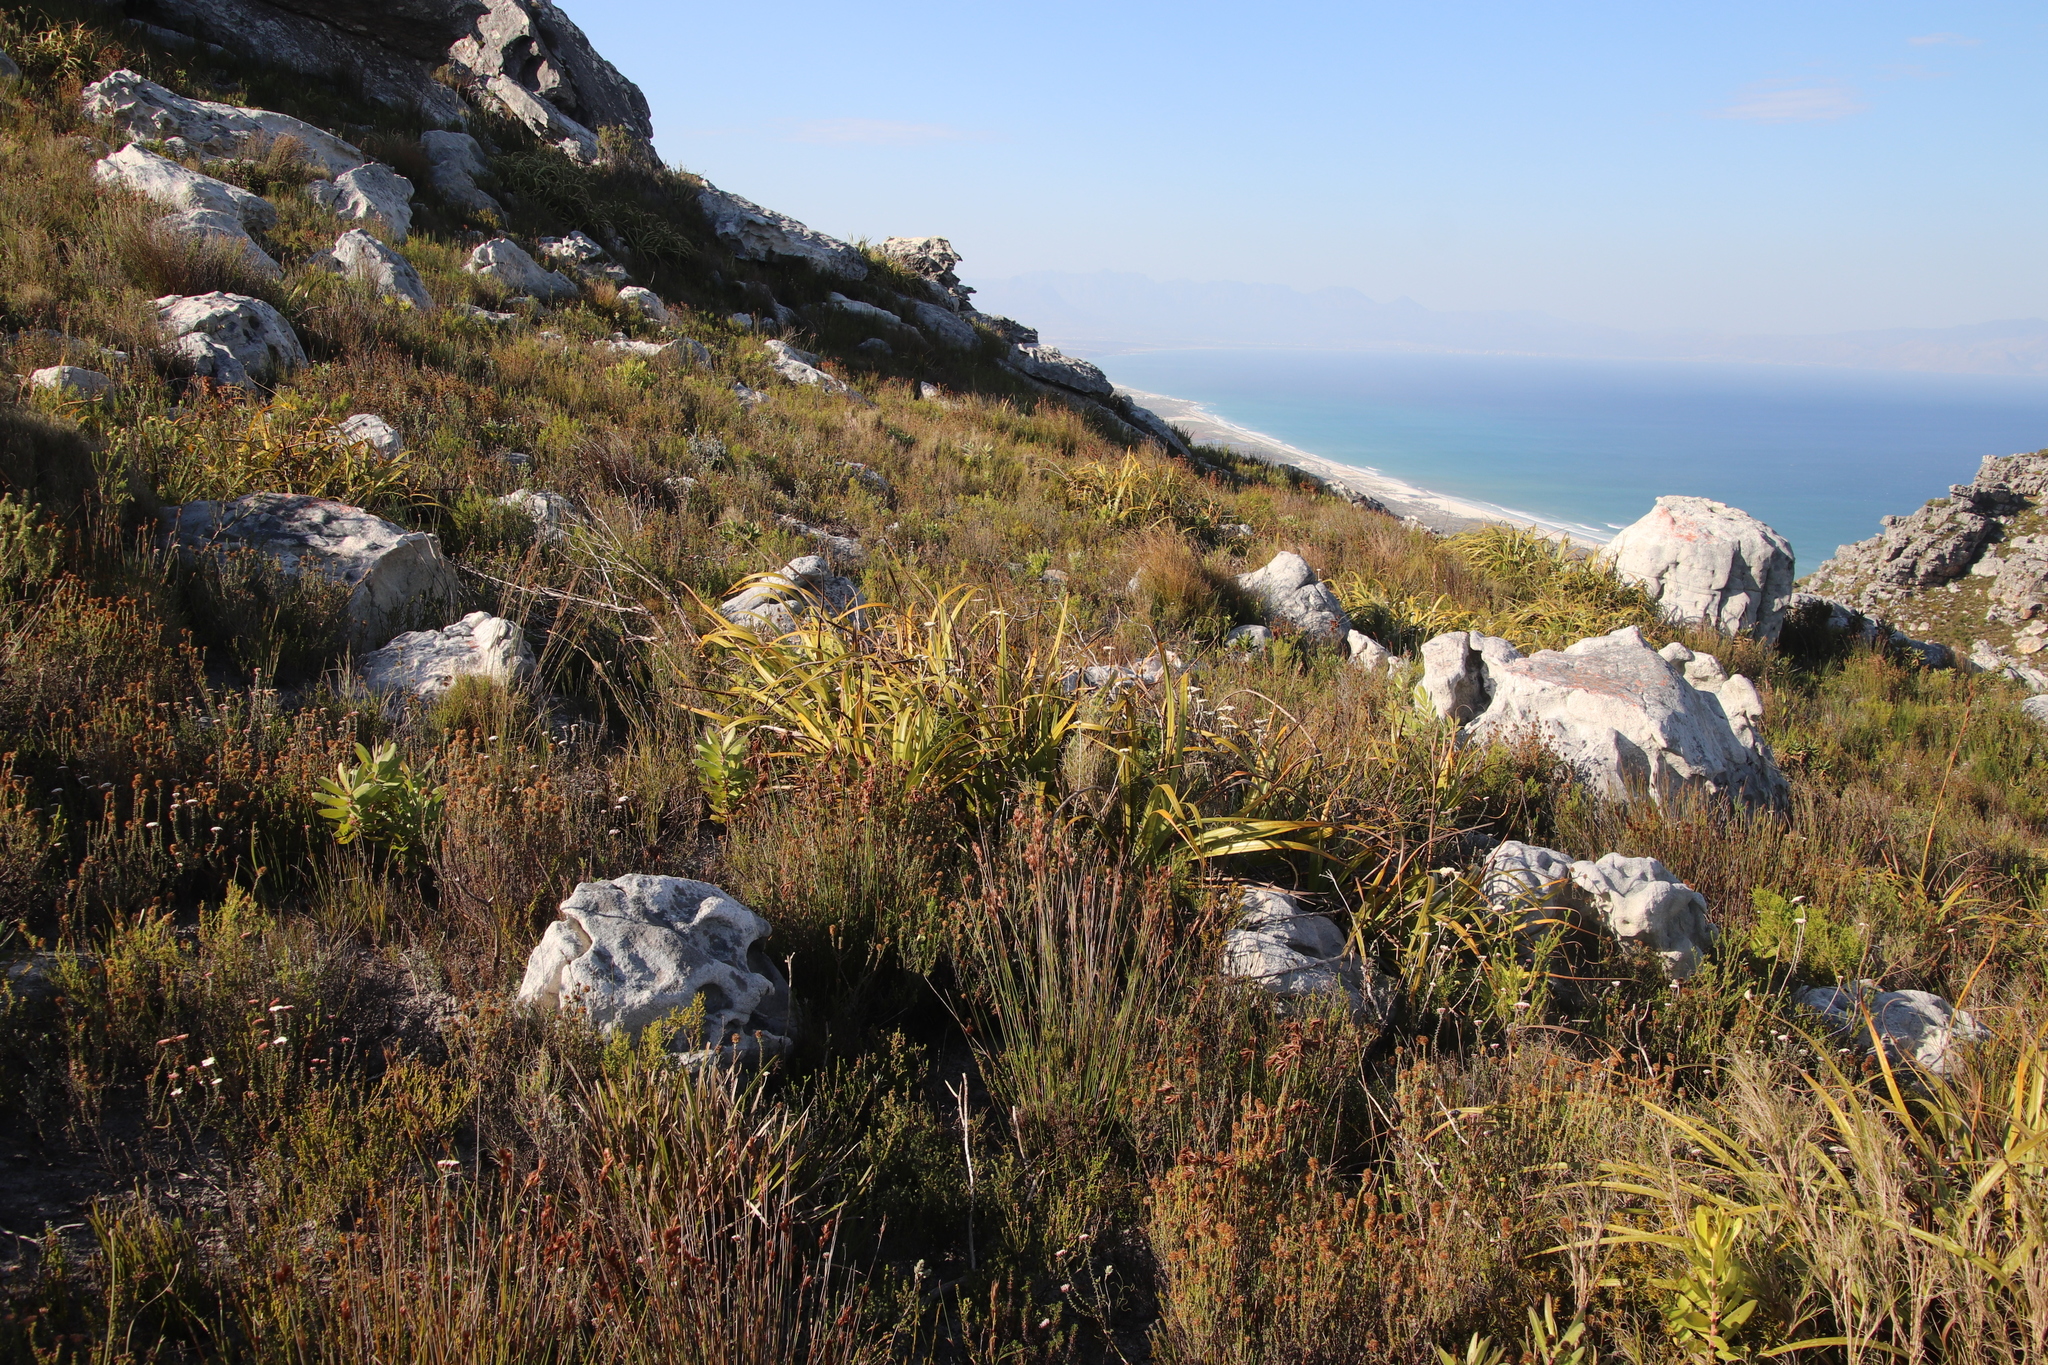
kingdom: Plantae
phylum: Tracheophyta
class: Liliopsida
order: Poales
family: Cyperaceae
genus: Tetraria
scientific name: Tetraria thermalis
